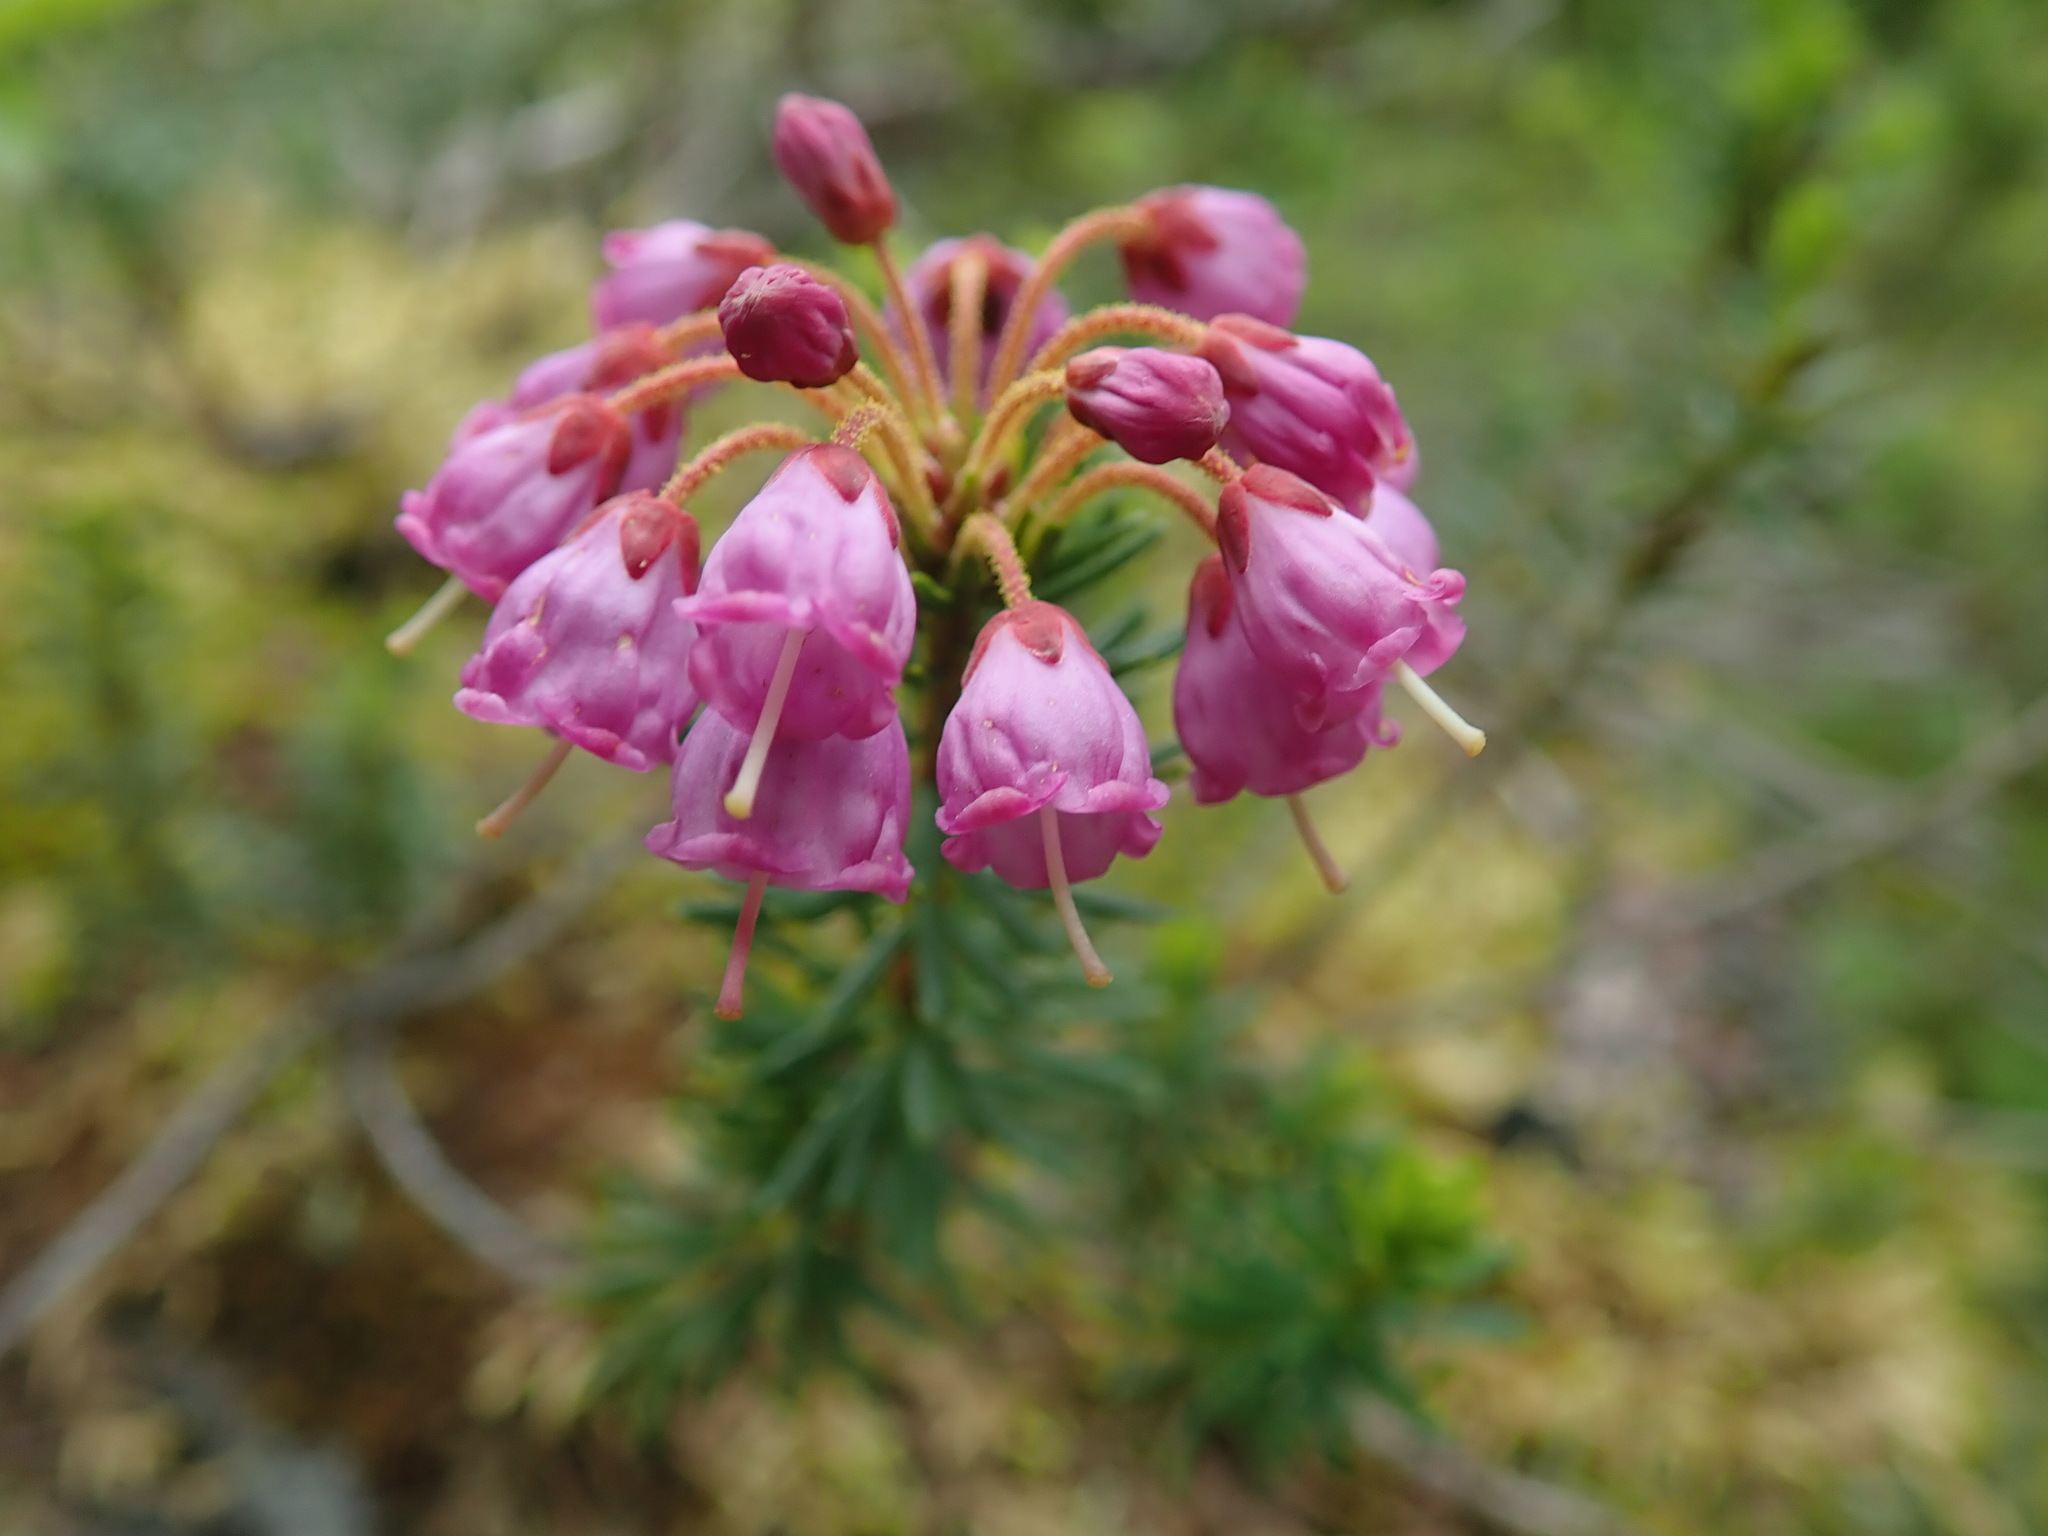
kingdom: Plantae
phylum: Tracheophyta
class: Magnoliopsida
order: Ericales
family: Ericaceae
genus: Phyllodoce
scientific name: Phyllodoce empetriformis
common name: Pink mountain heather
